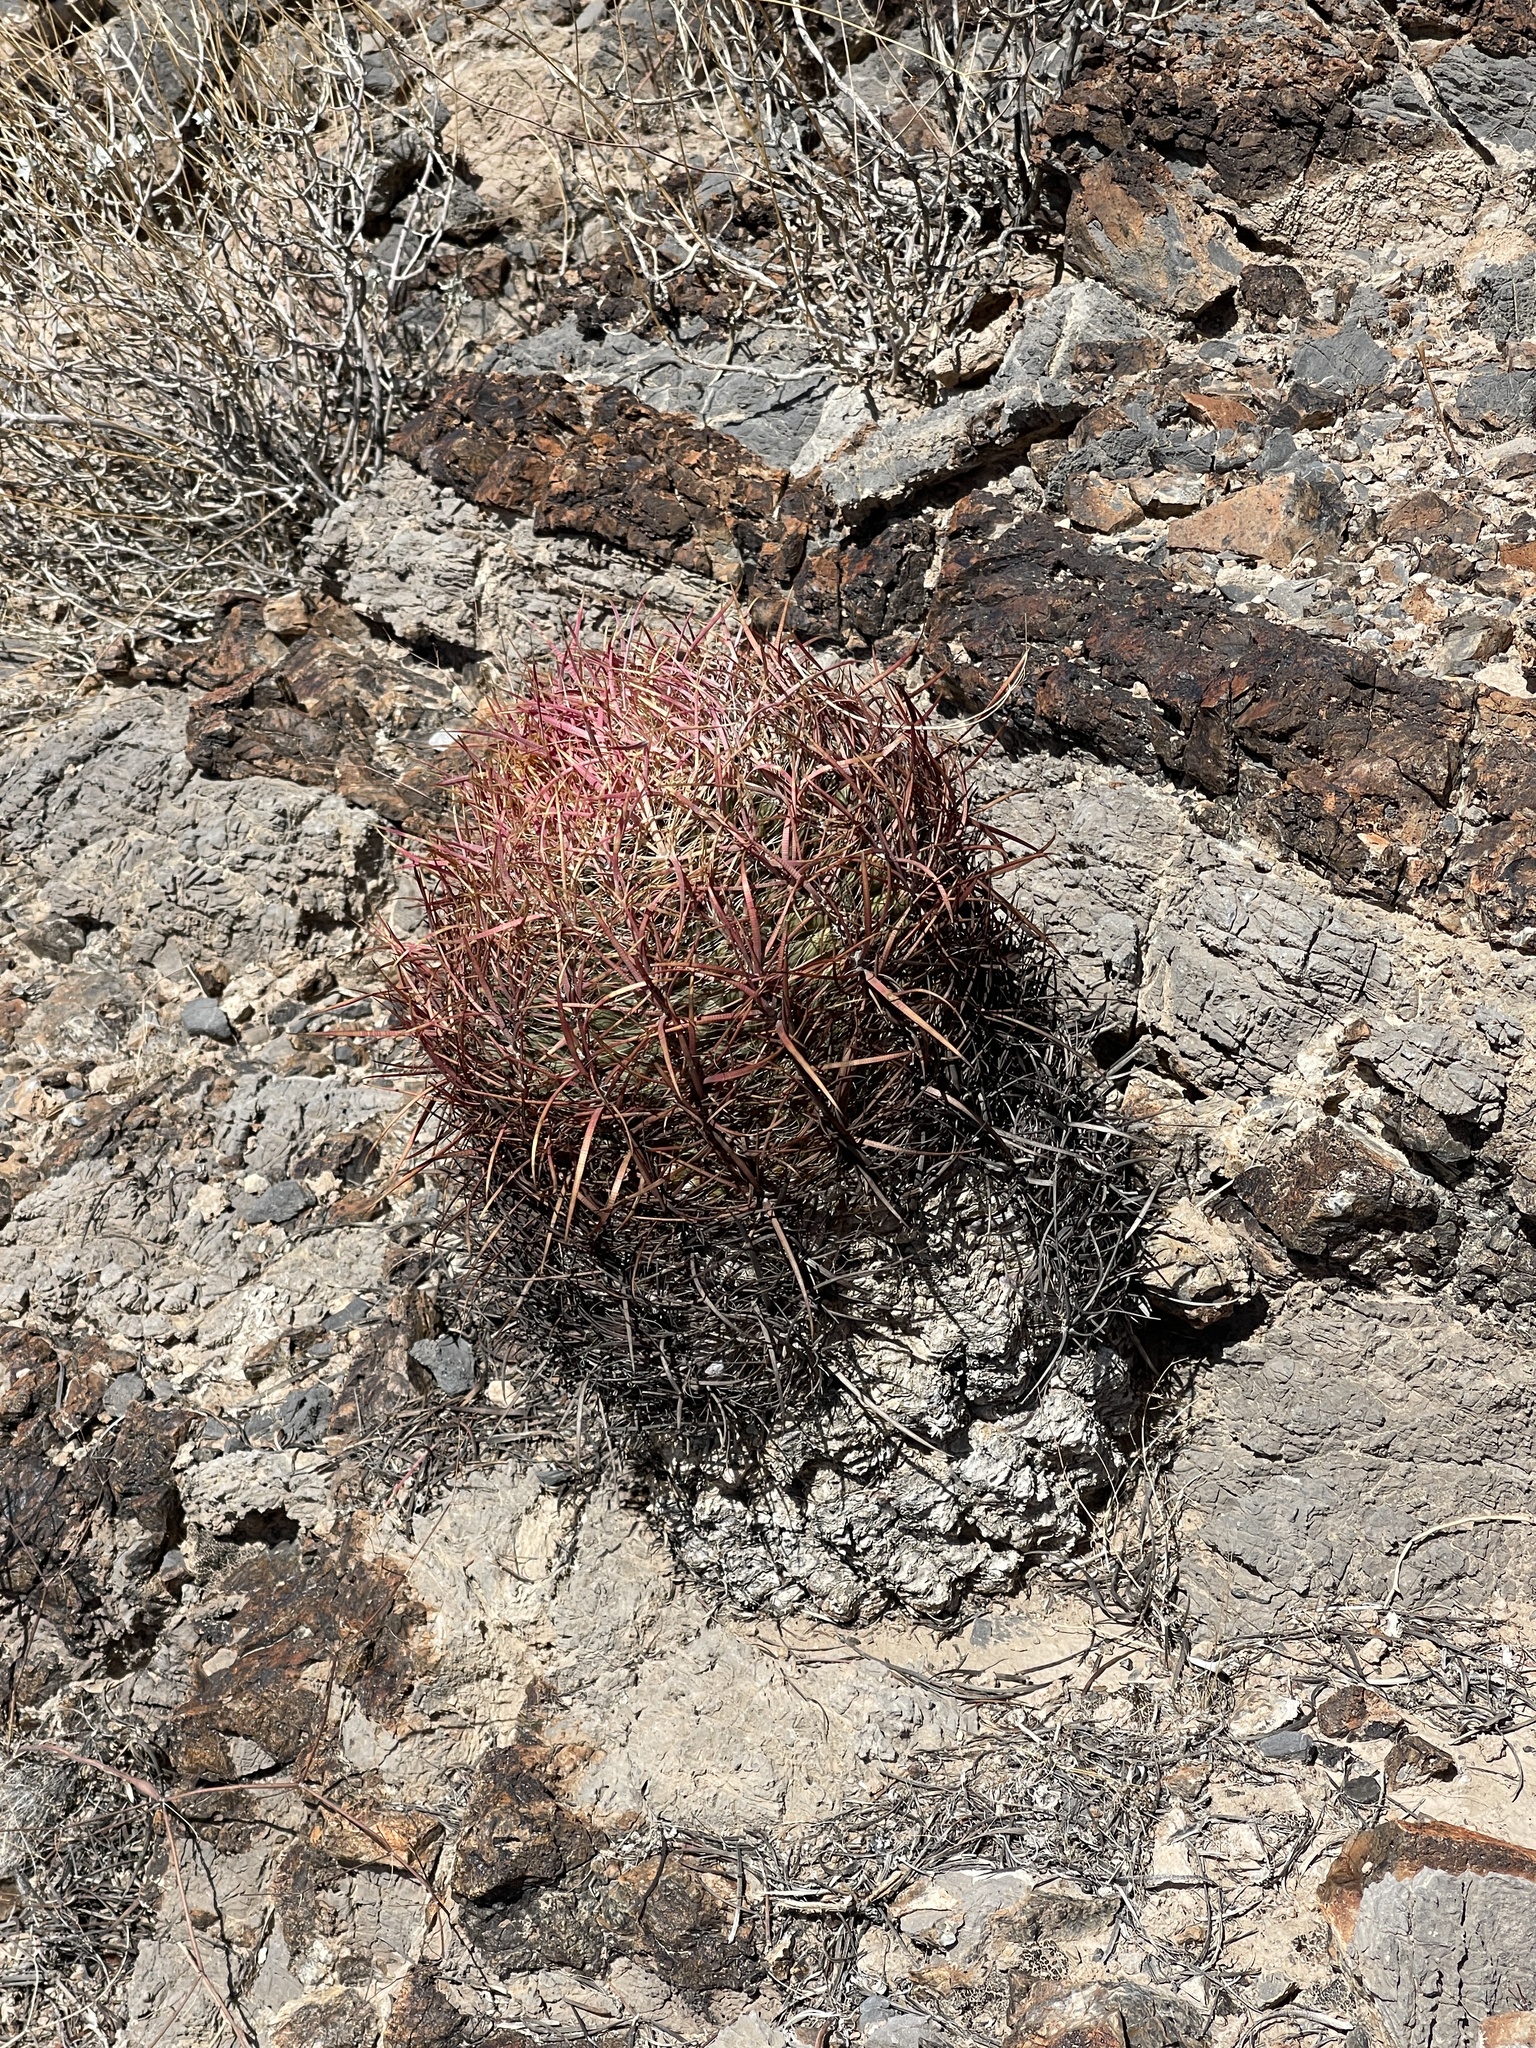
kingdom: Plantae
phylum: Tracheophyta
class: Magnoliopsida
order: Caryophyllales
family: Cactaceae
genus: Ferocactus
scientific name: Ferocactus cylindraceus
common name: California barrel cactus
